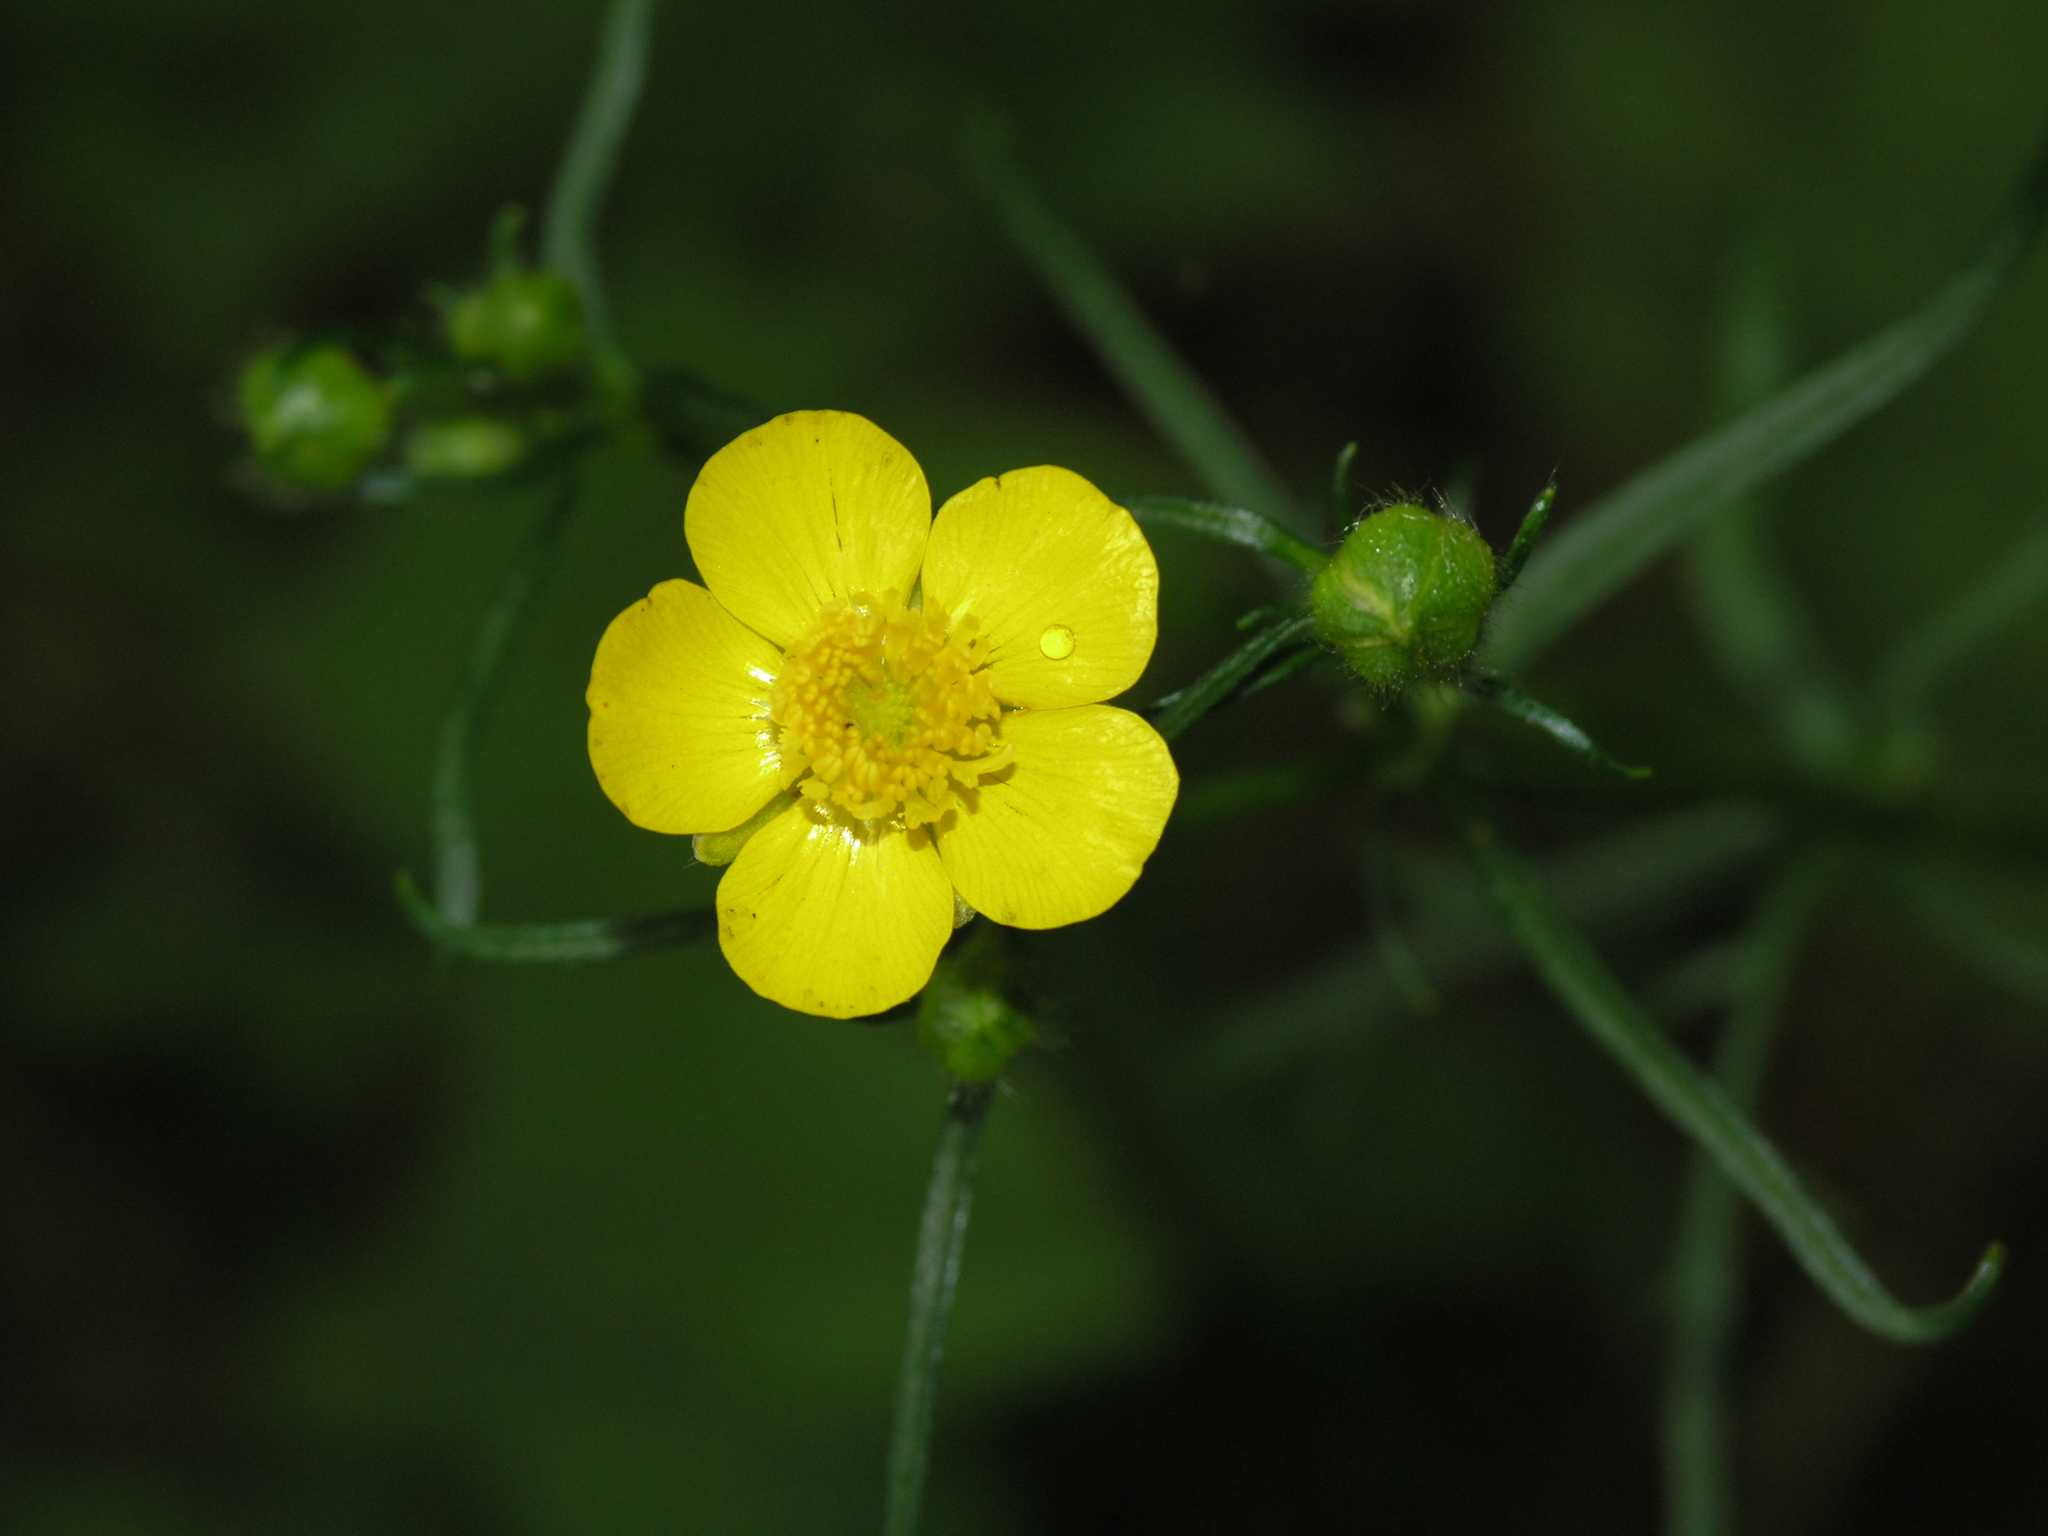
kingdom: Plantae
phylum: Tracheophyta
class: Magnoliopsida
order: Ranunculales
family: Ranunculaceae
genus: Ranunculus
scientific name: Ranunculus polyanthemos
